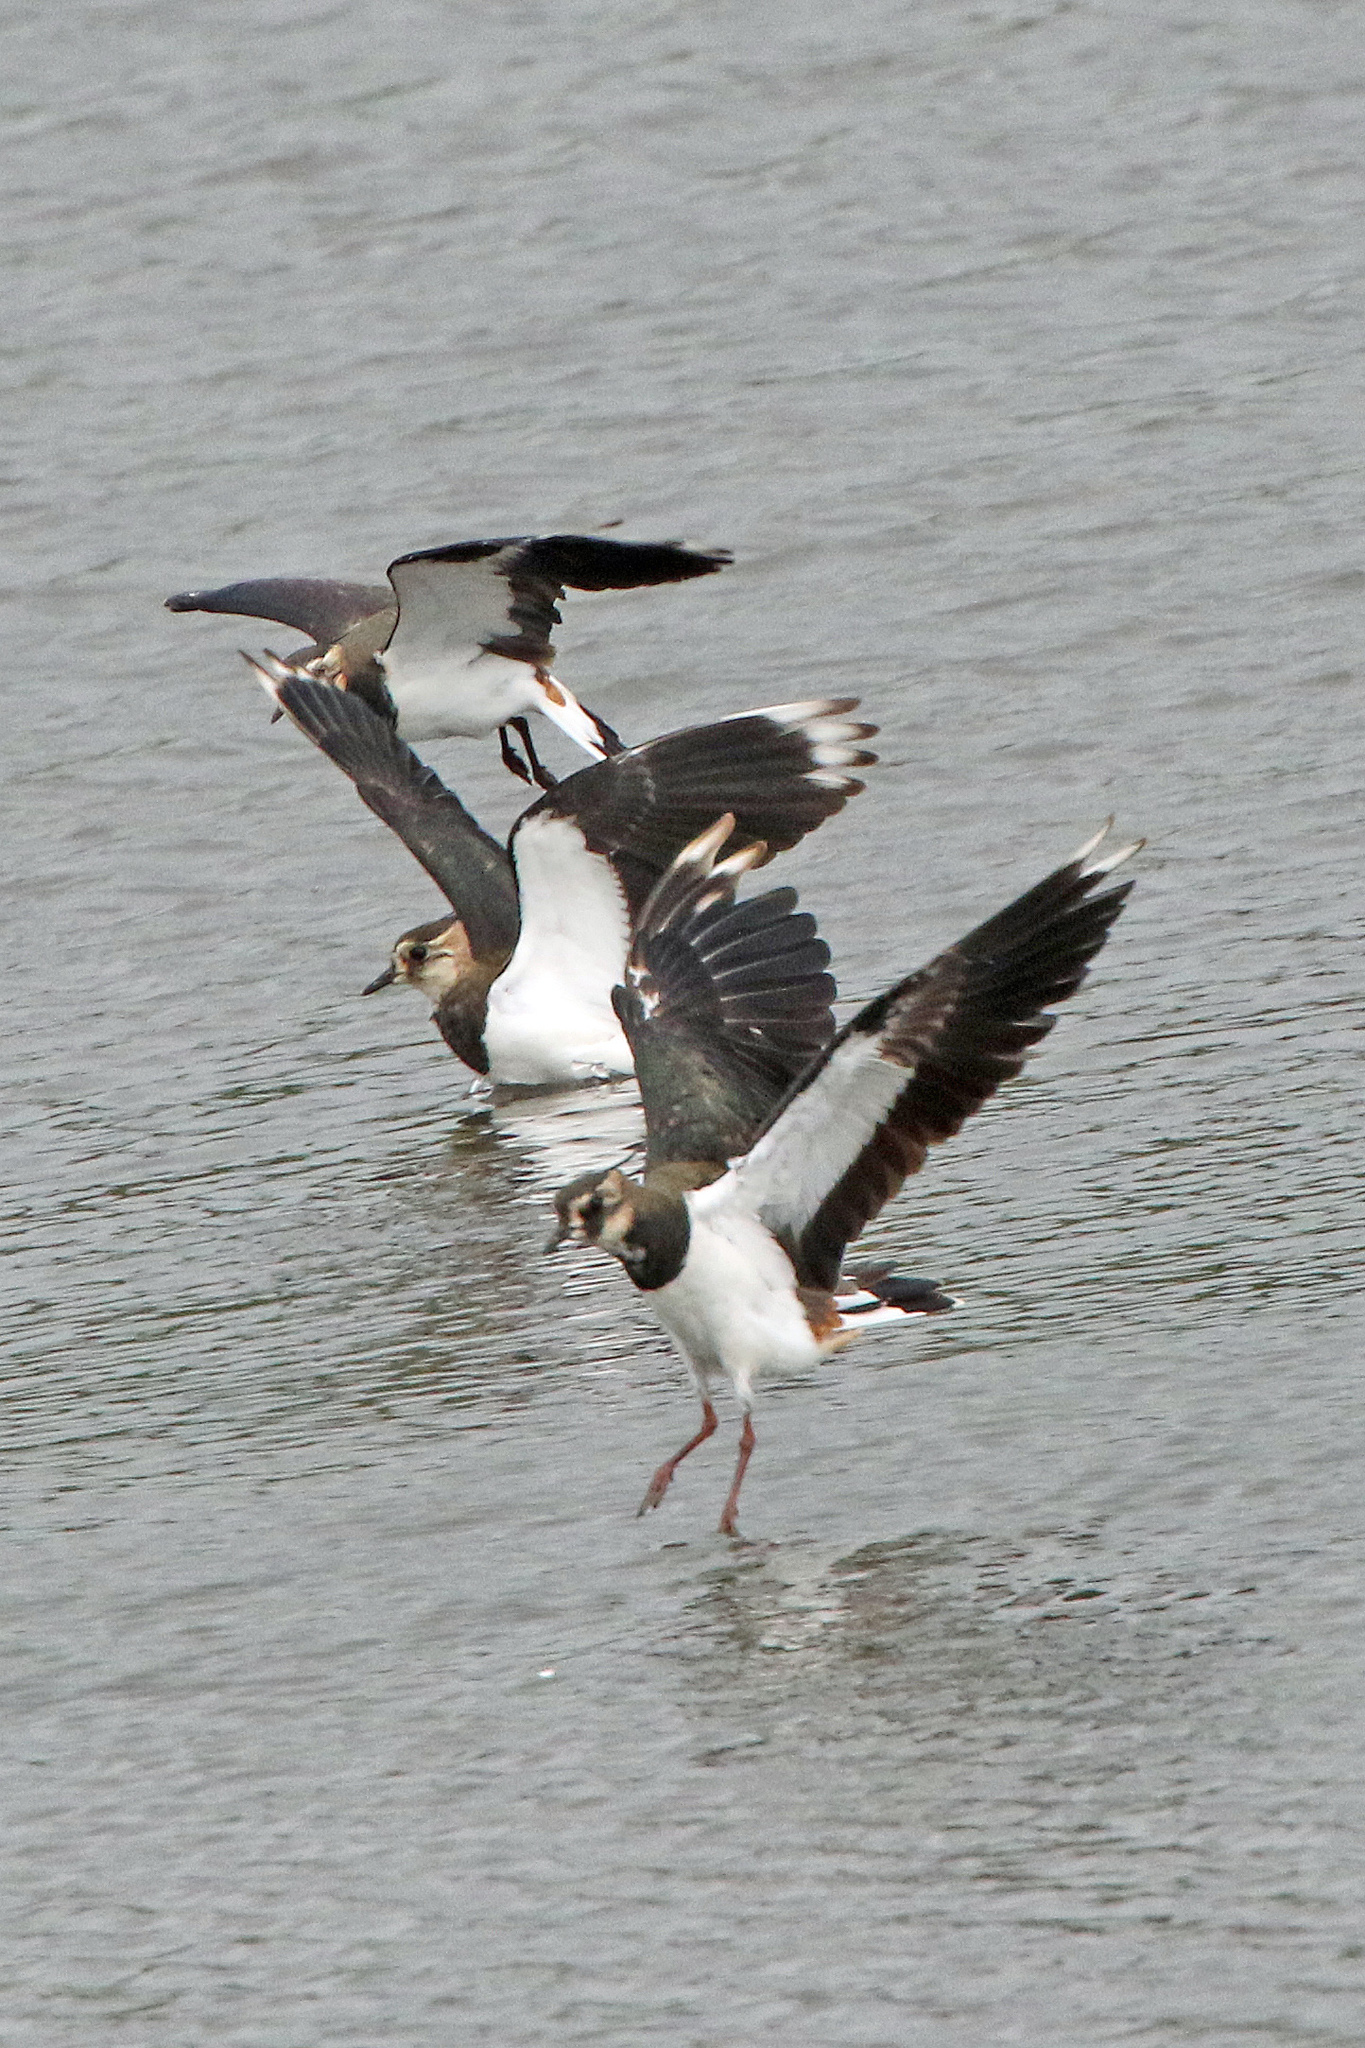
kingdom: Animalia
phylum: Chordata
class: Aves
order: Charadriiformes
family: Charadriidae
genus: Vanellus
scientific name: Vanellus vanellus
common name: Northern lapwing
